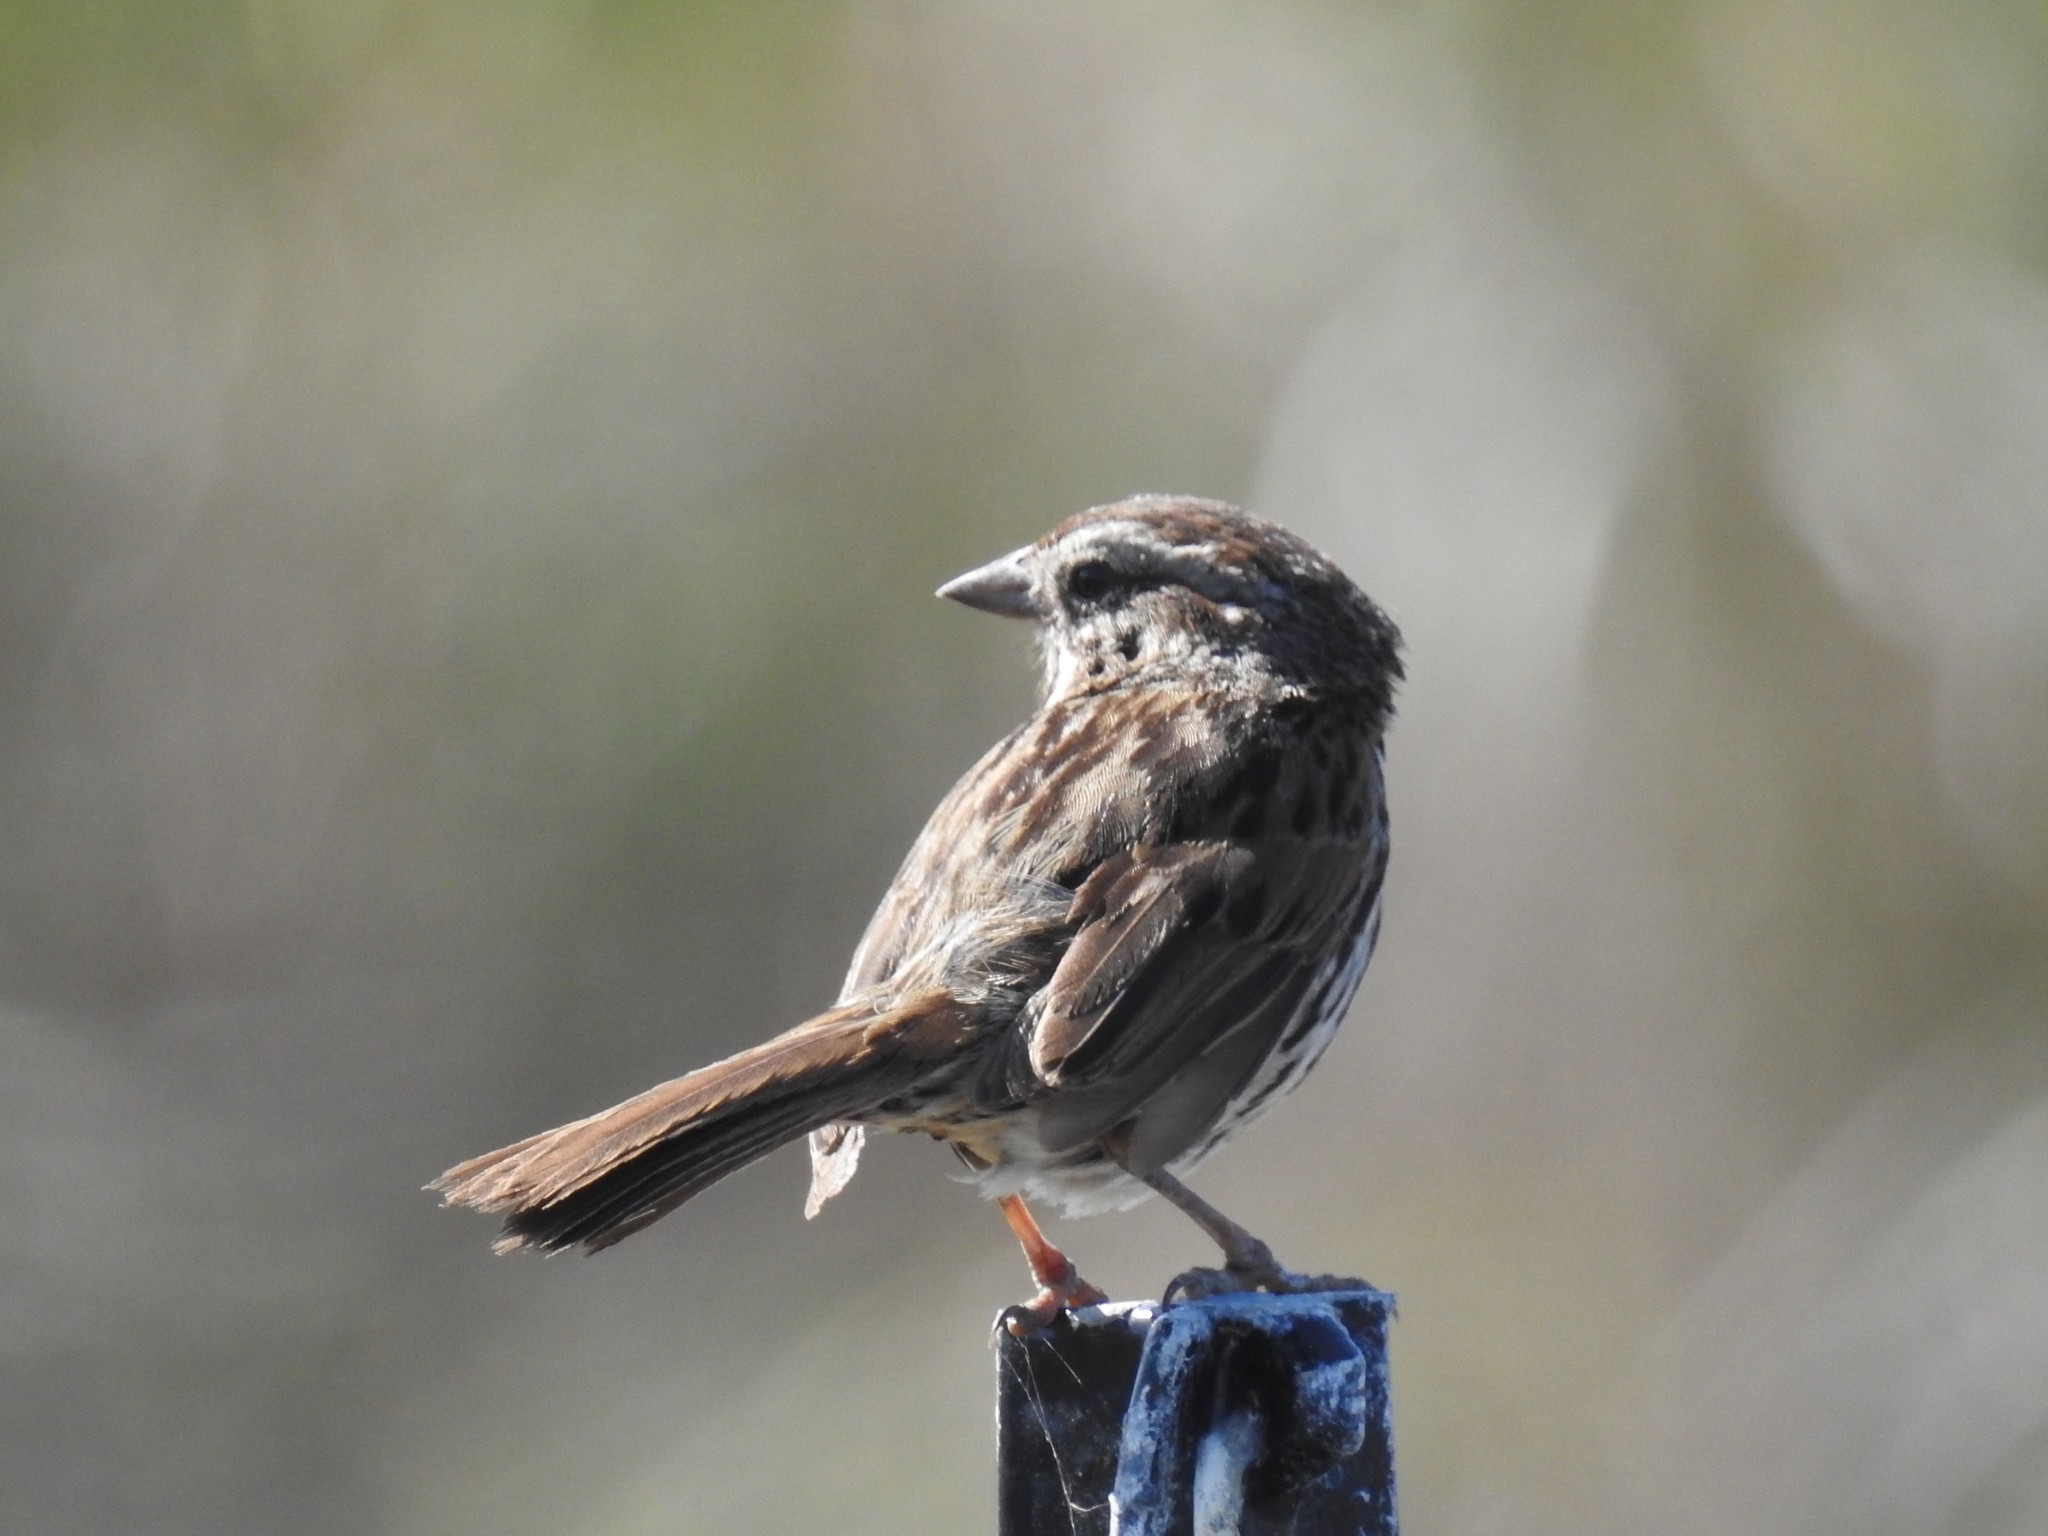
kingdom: Animalia
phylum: Chordata
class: Aves
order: Passeriformes
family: Passerellidae
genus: Melospiza
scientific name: Melospiza melodia
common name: Song sparrow
